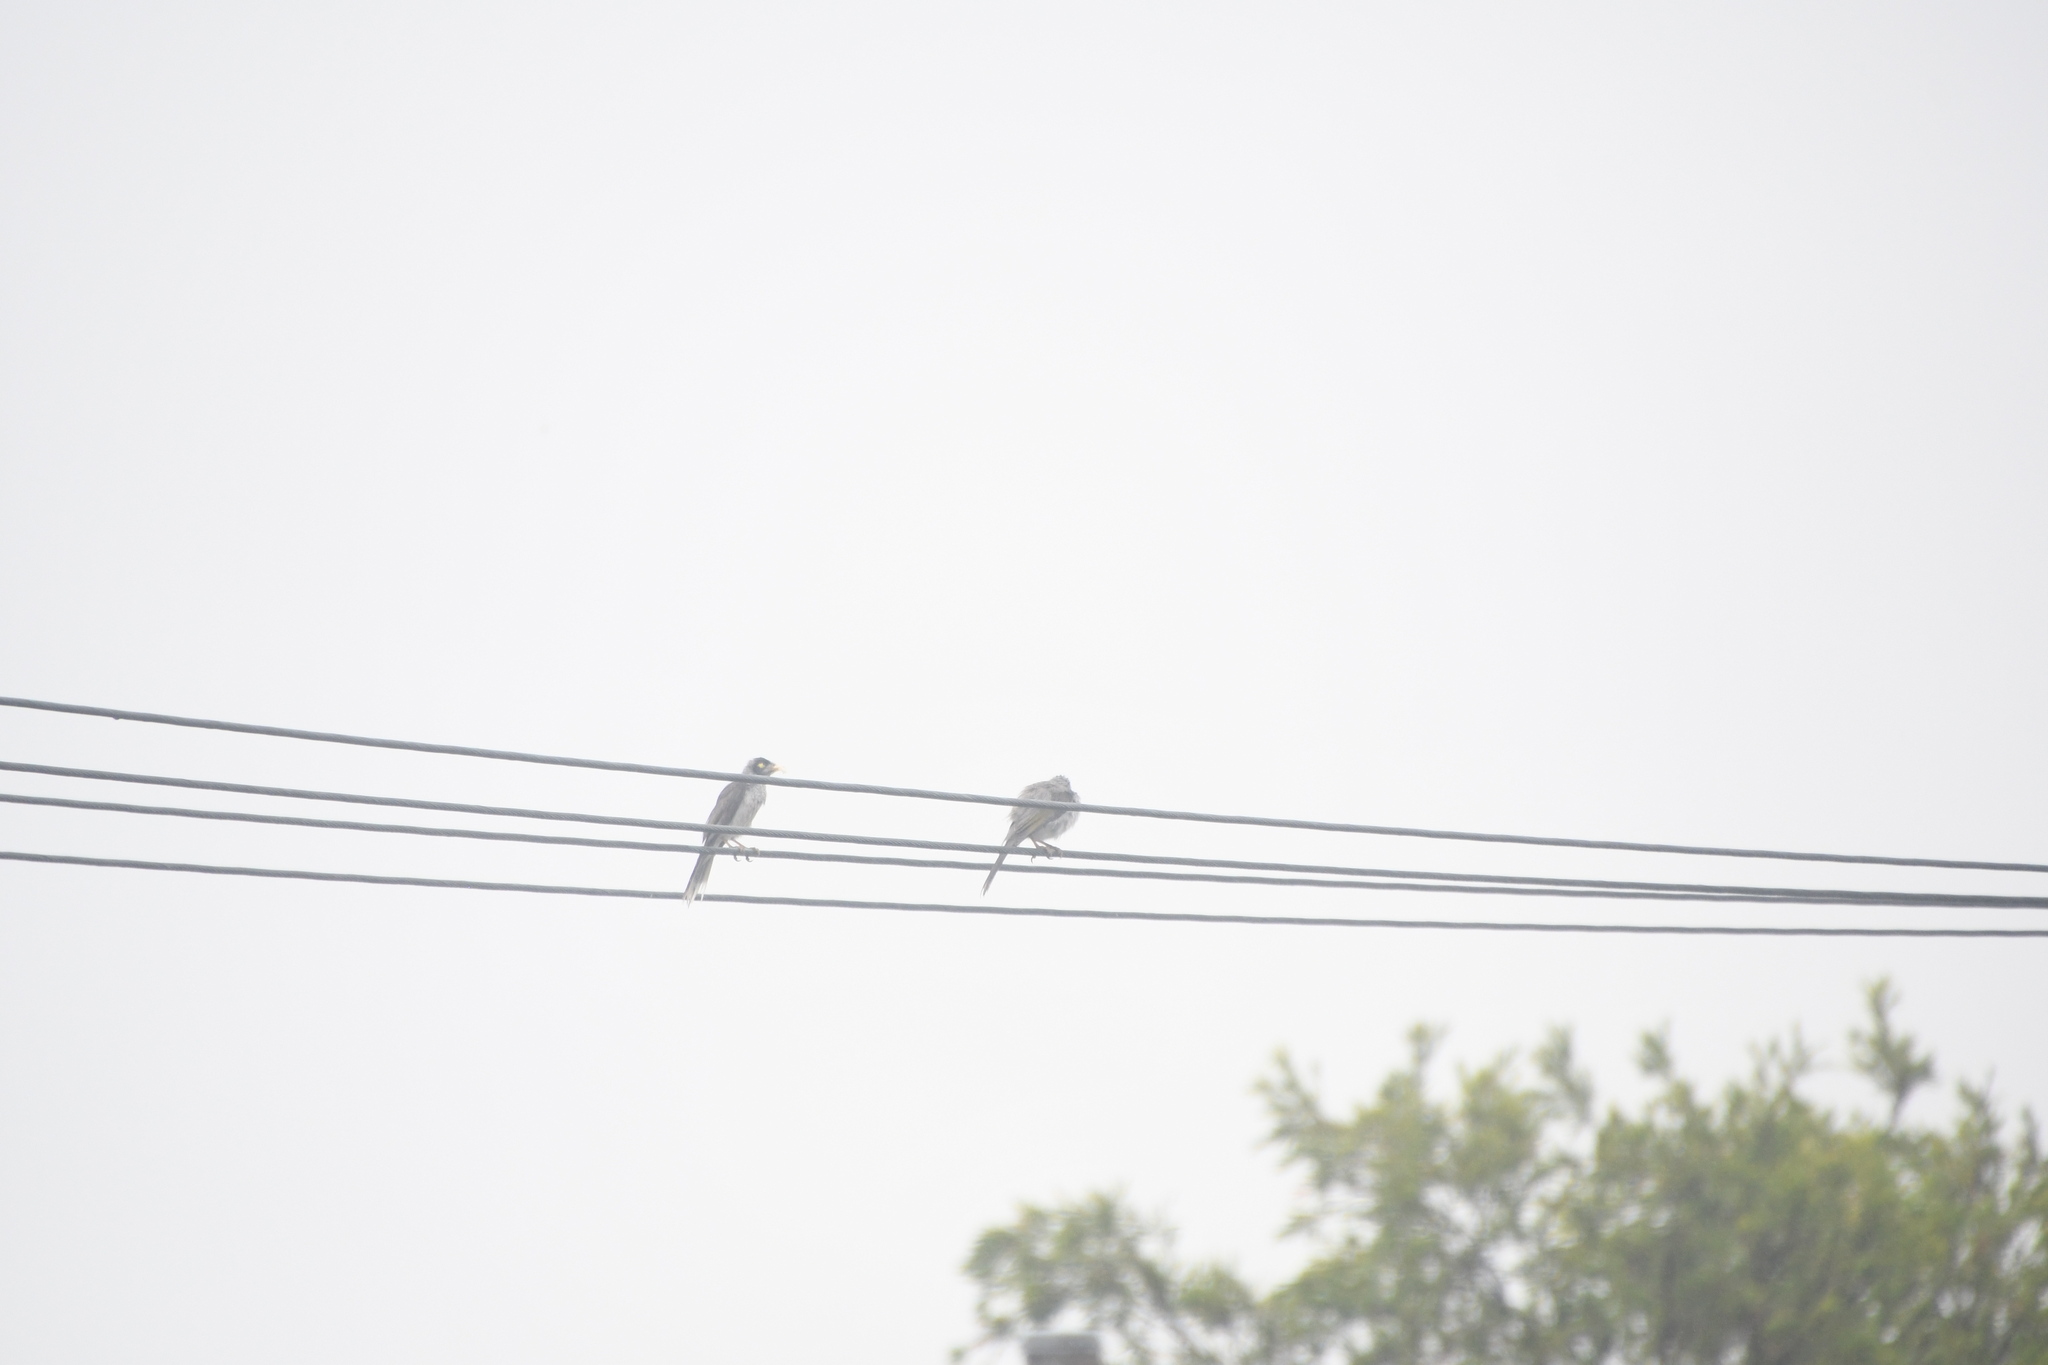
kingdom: Animalia
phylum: Chordata
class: Aves
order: Passeriformes
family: Meliphagidae
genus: Manorina
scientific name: Manorina melanocephala
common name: Noisy miner
